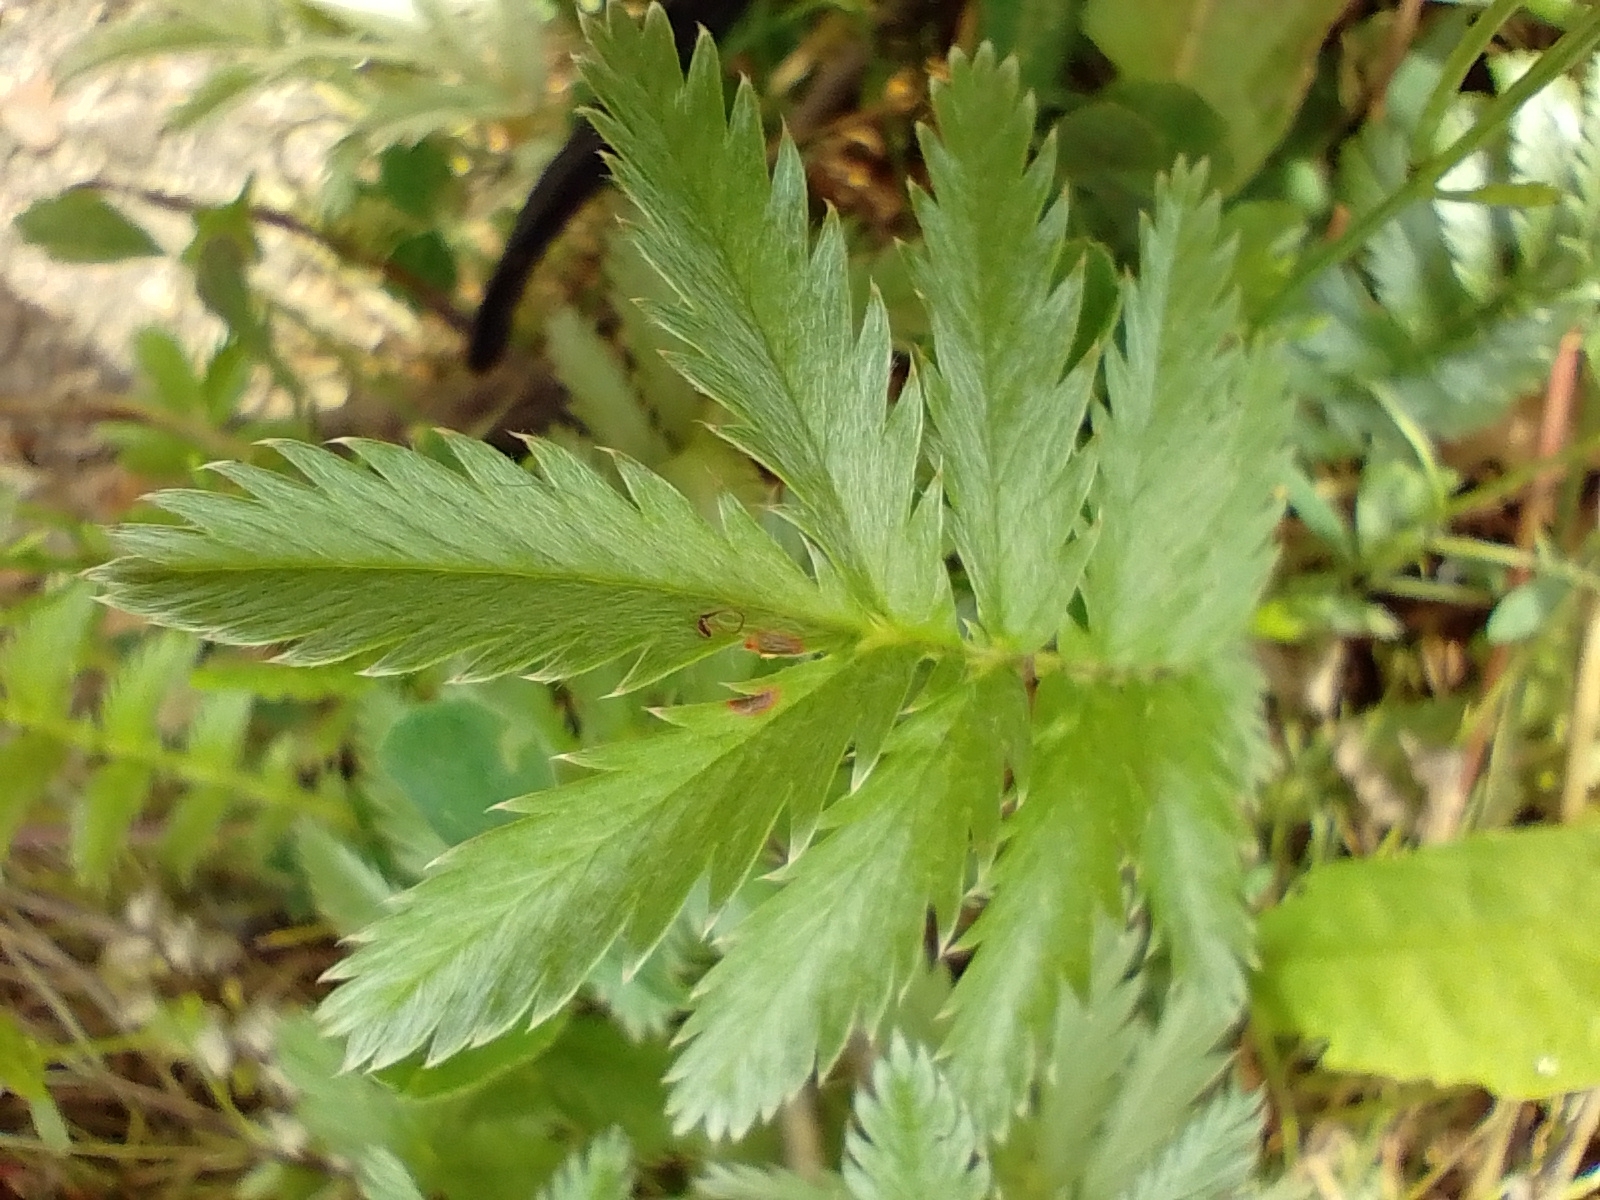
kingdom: Plantae
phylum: Tracheophyta
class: Magnoliopsida
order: Rosales
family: Rosaceae
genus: Argentina
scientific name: Argentina anserina
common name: Common silverweed
